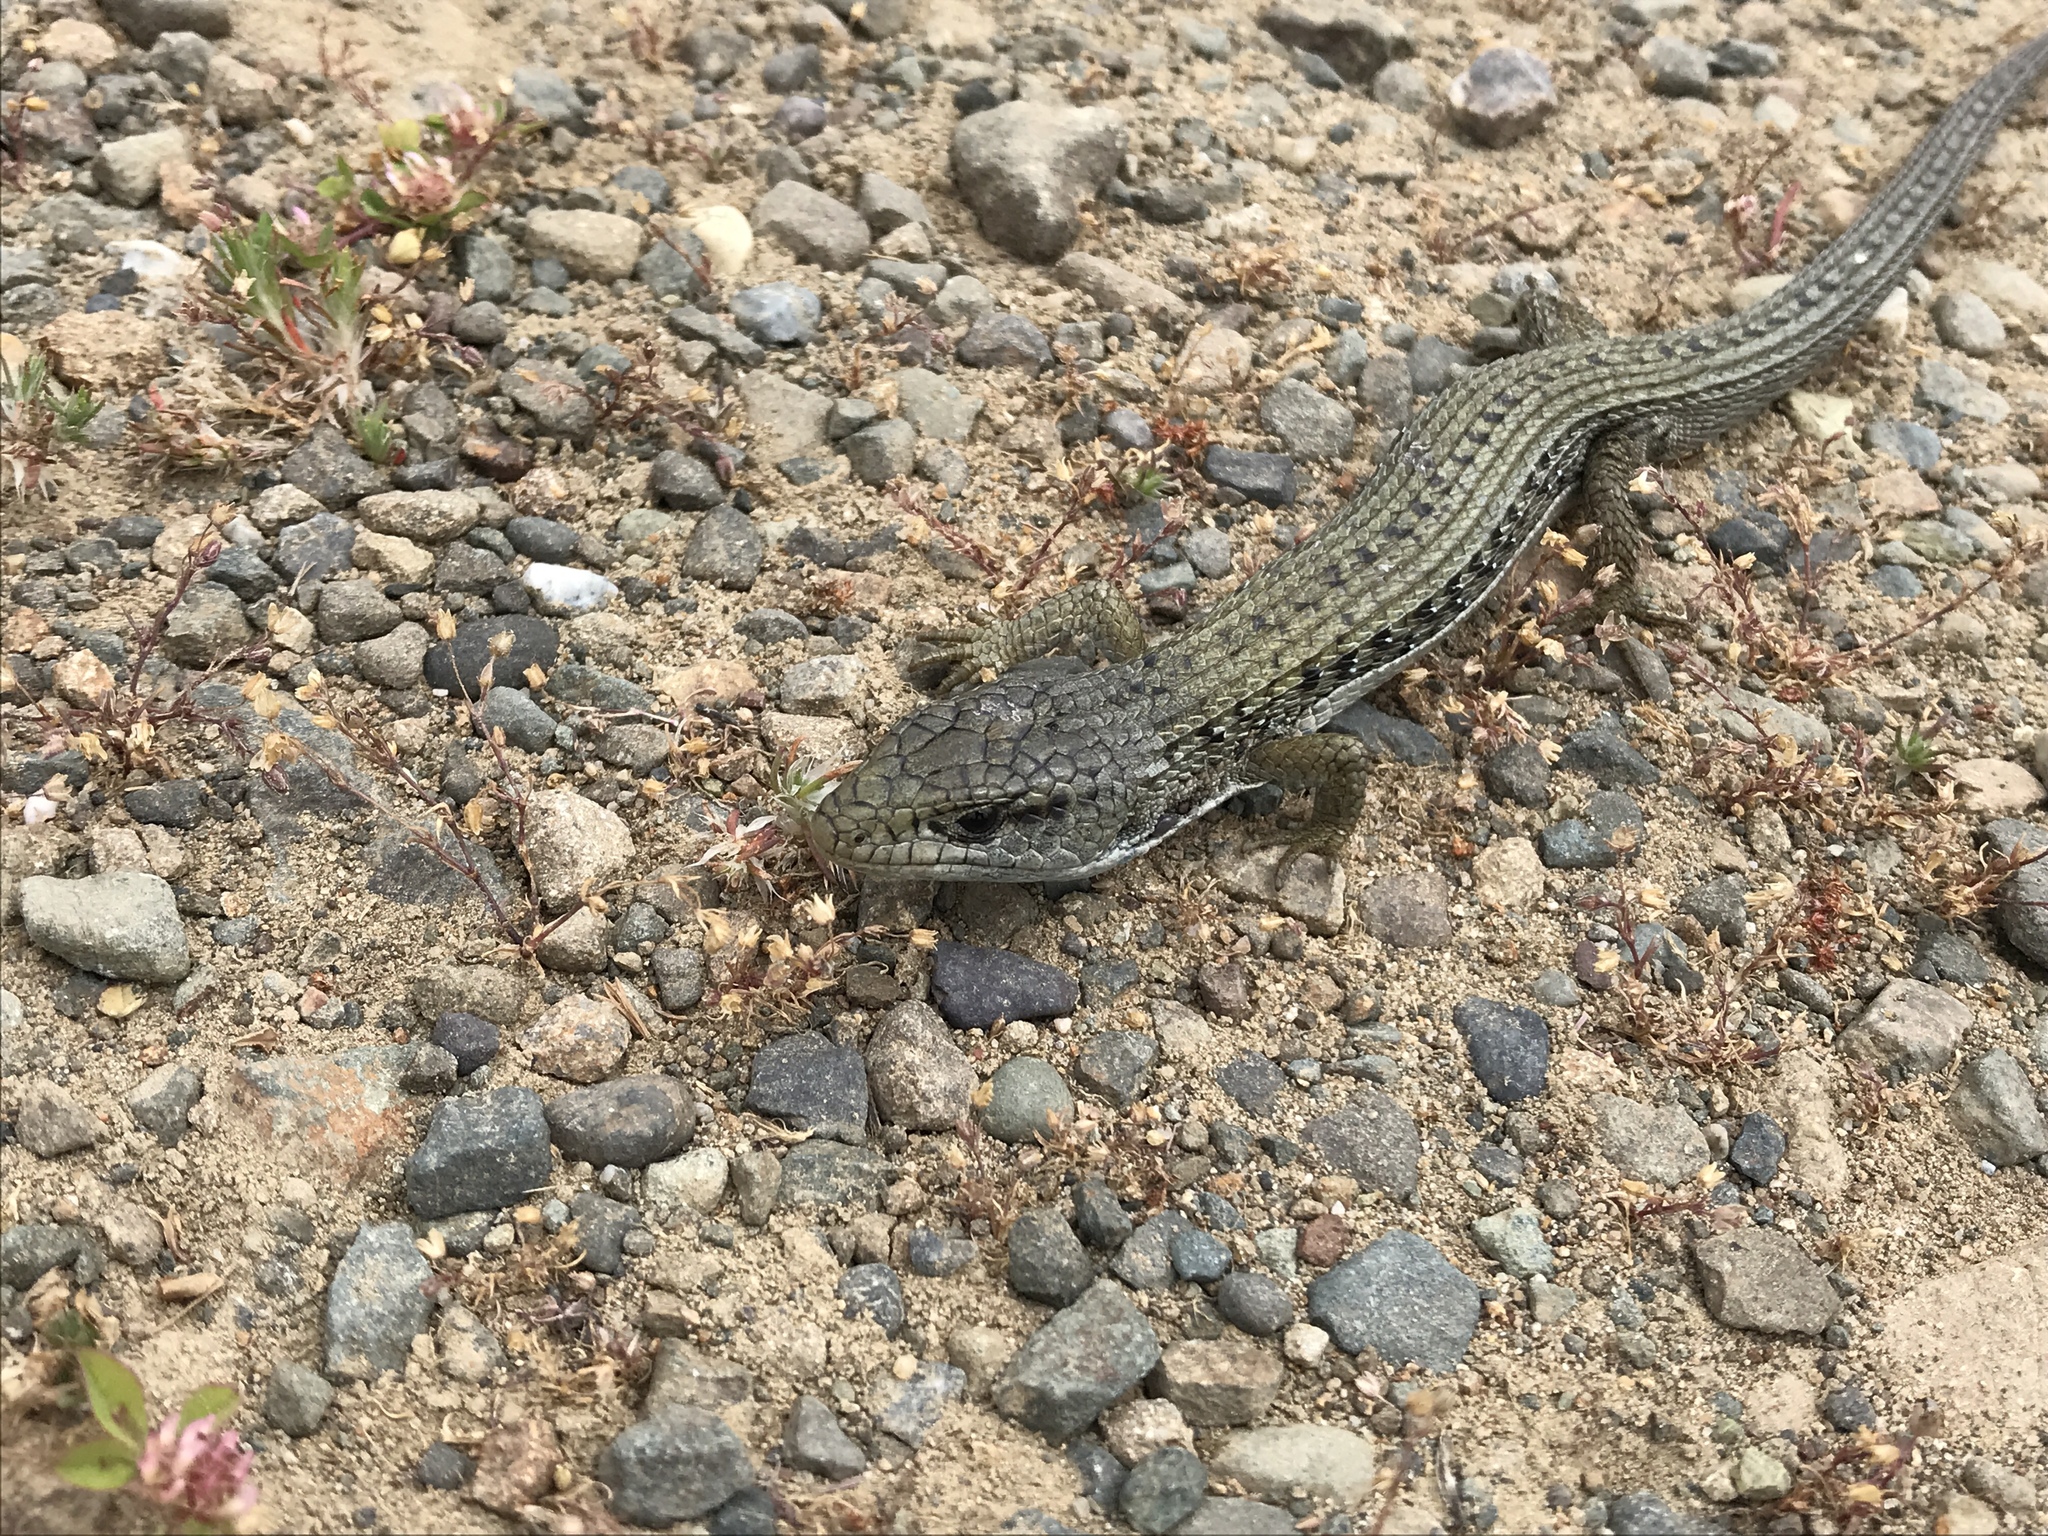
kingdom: Animalia
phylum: Chordata
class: Squamata
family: Anguidae
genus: Elgaria
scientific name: Elgaria coerulea
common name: Northern alligator lizard
